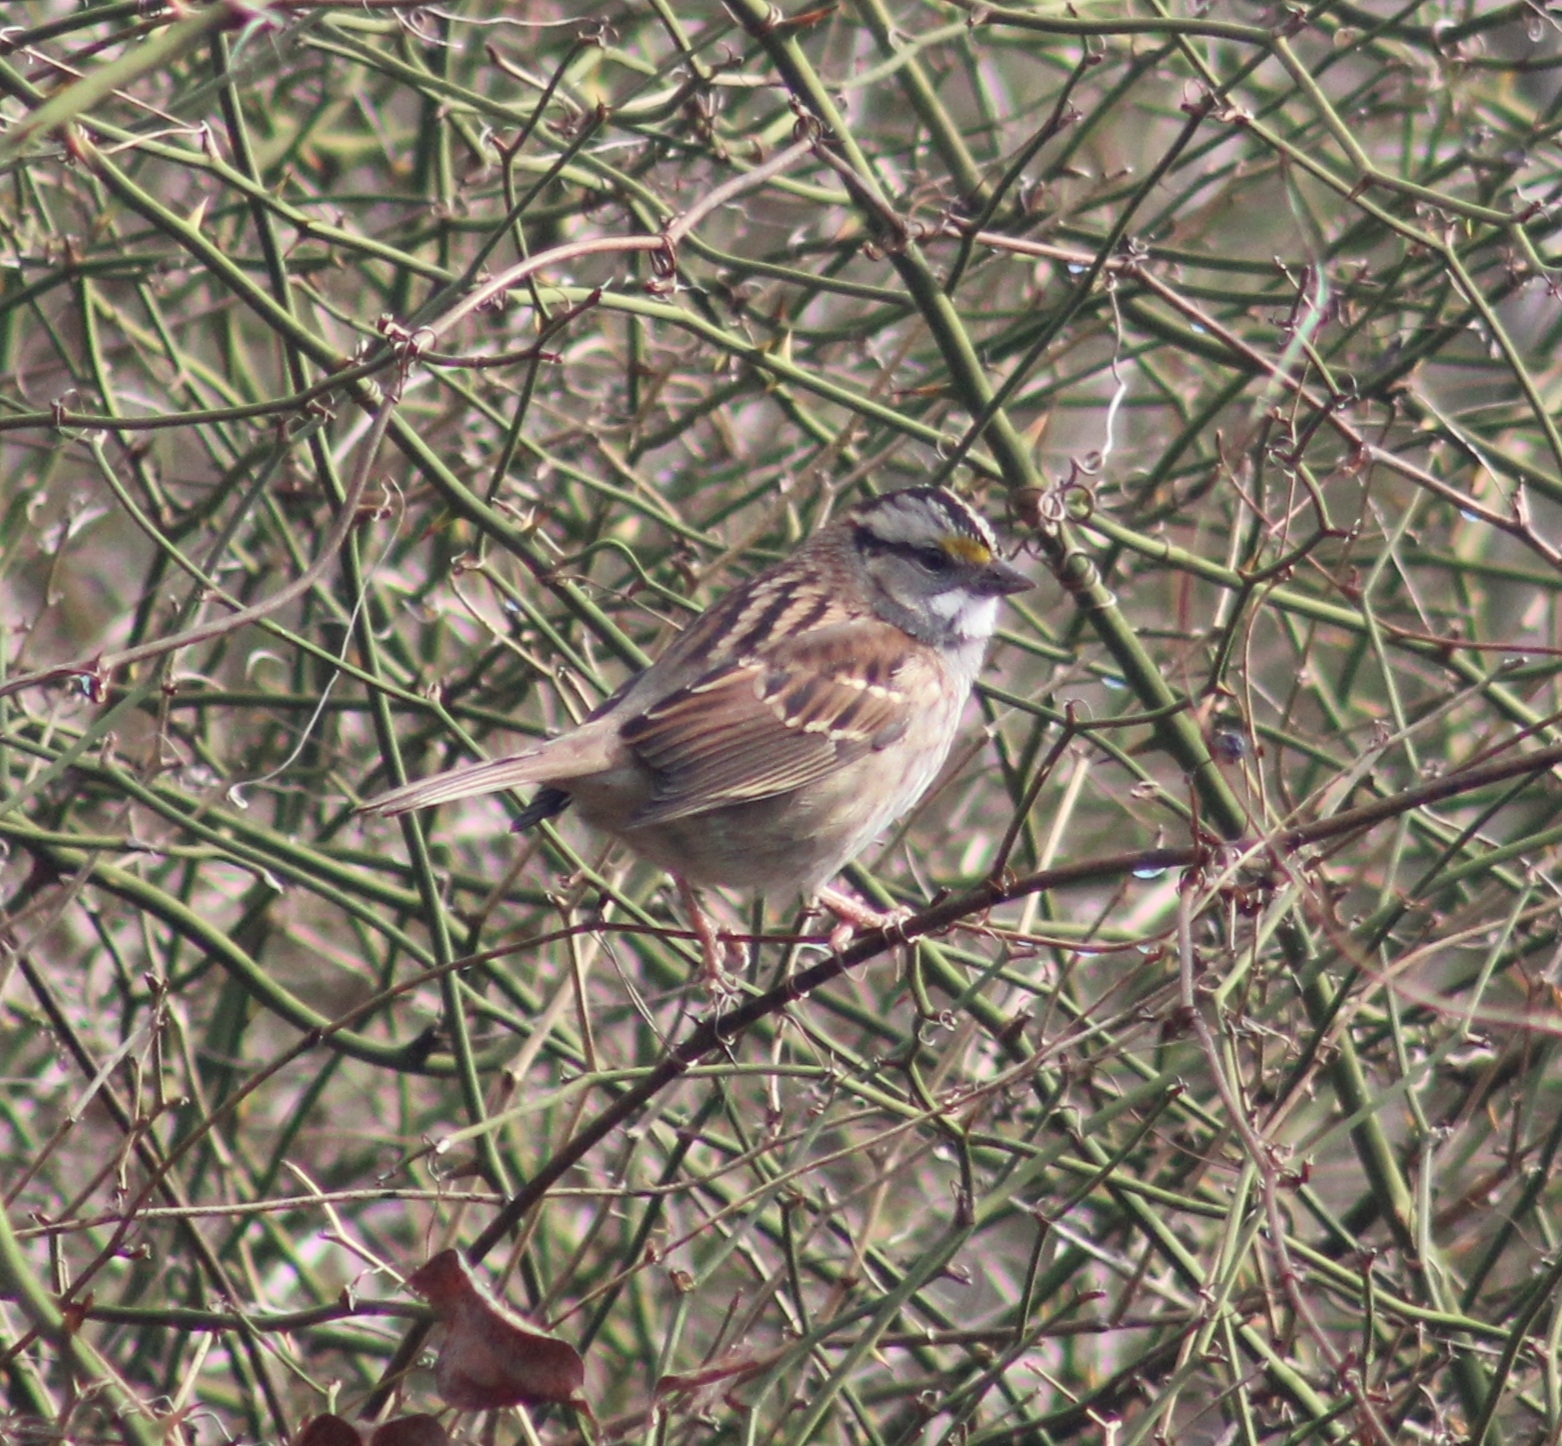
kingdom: Animalia
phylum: Chordata
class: Aves
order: Passeriformes
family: Passerellidae
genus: Zonotrichia
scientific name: Zonotrichia albicollis
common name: White-throated sparrow
